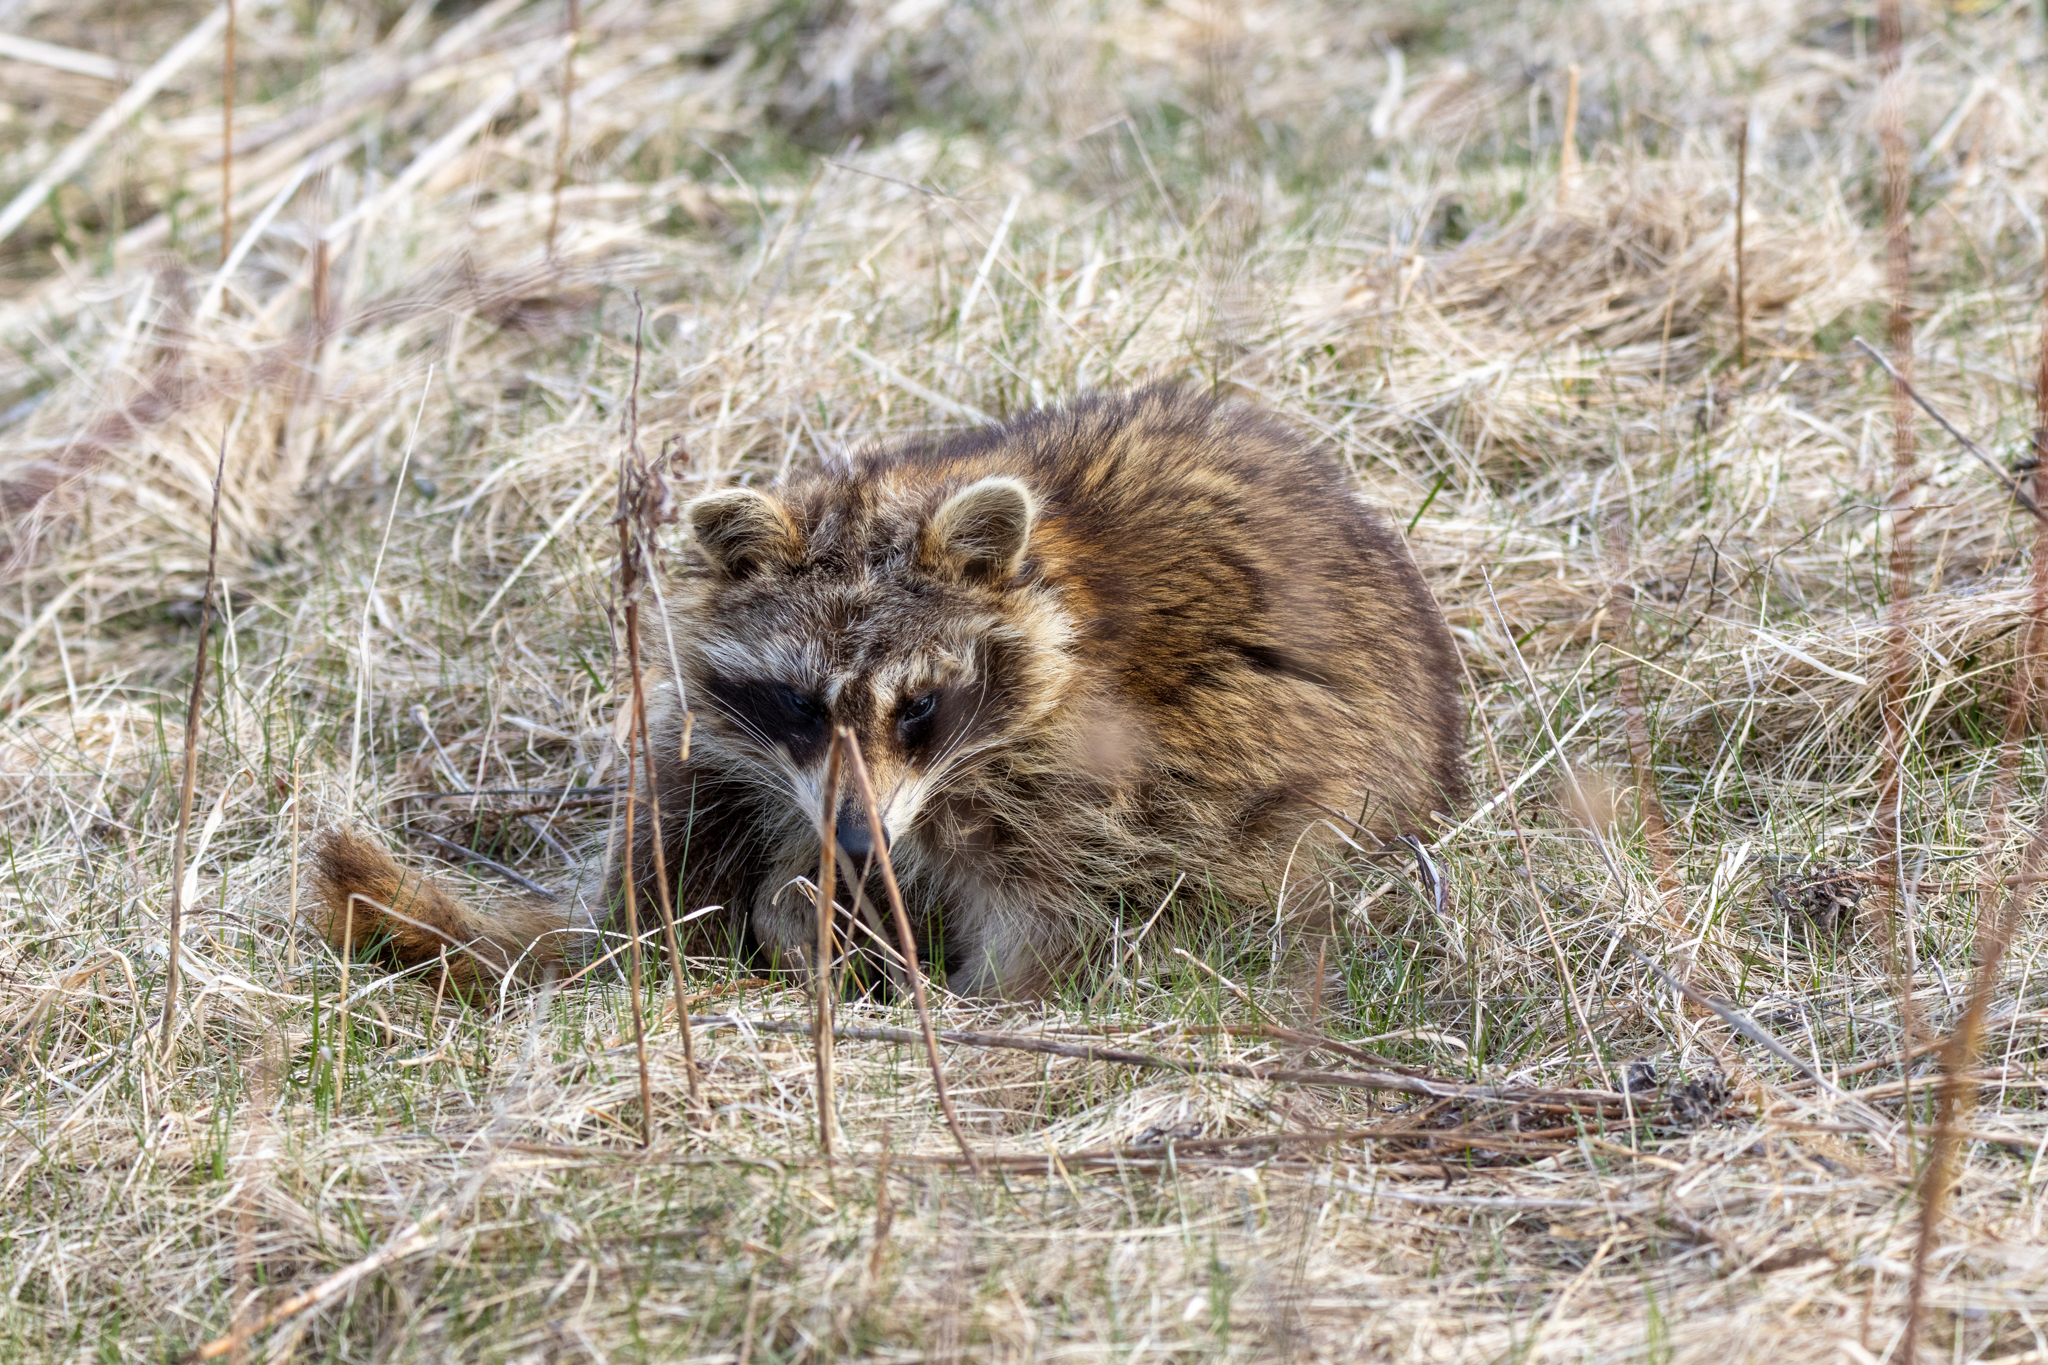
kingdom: Animalia
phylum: Chordata
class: Mammalia
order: Carnivora
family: Procyonidae
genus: Procyon
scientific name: Procyon lotor
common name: Raccoon
